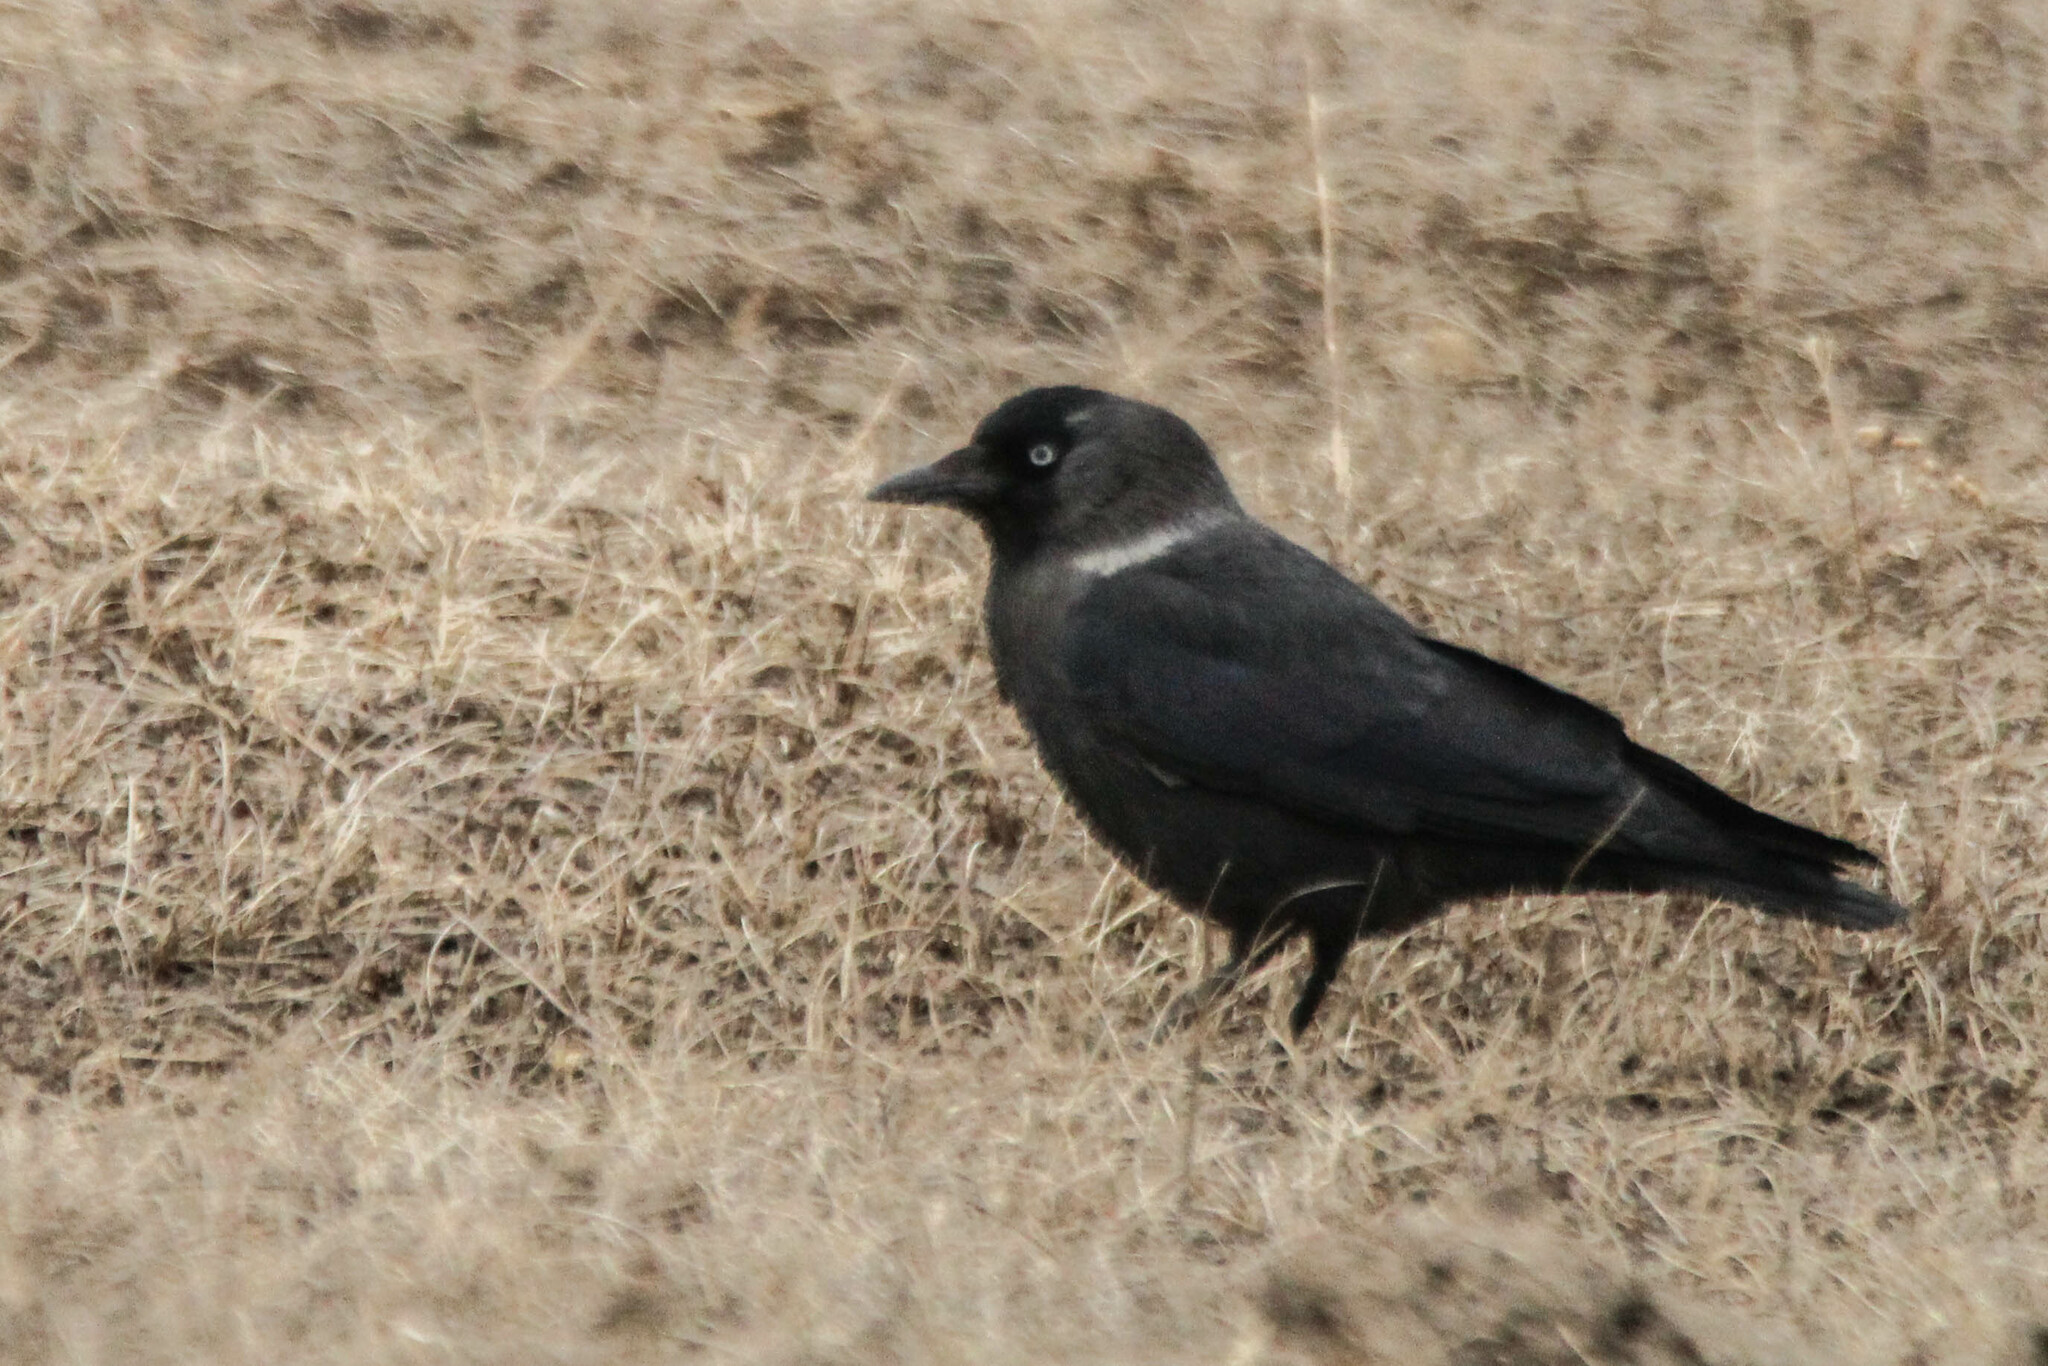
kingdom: Animalia
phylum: Chordata
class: Aves
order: Passeriformes
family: Corvidae
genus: Coloeus
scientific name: Coloeus monedula
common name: Western jackdaw
